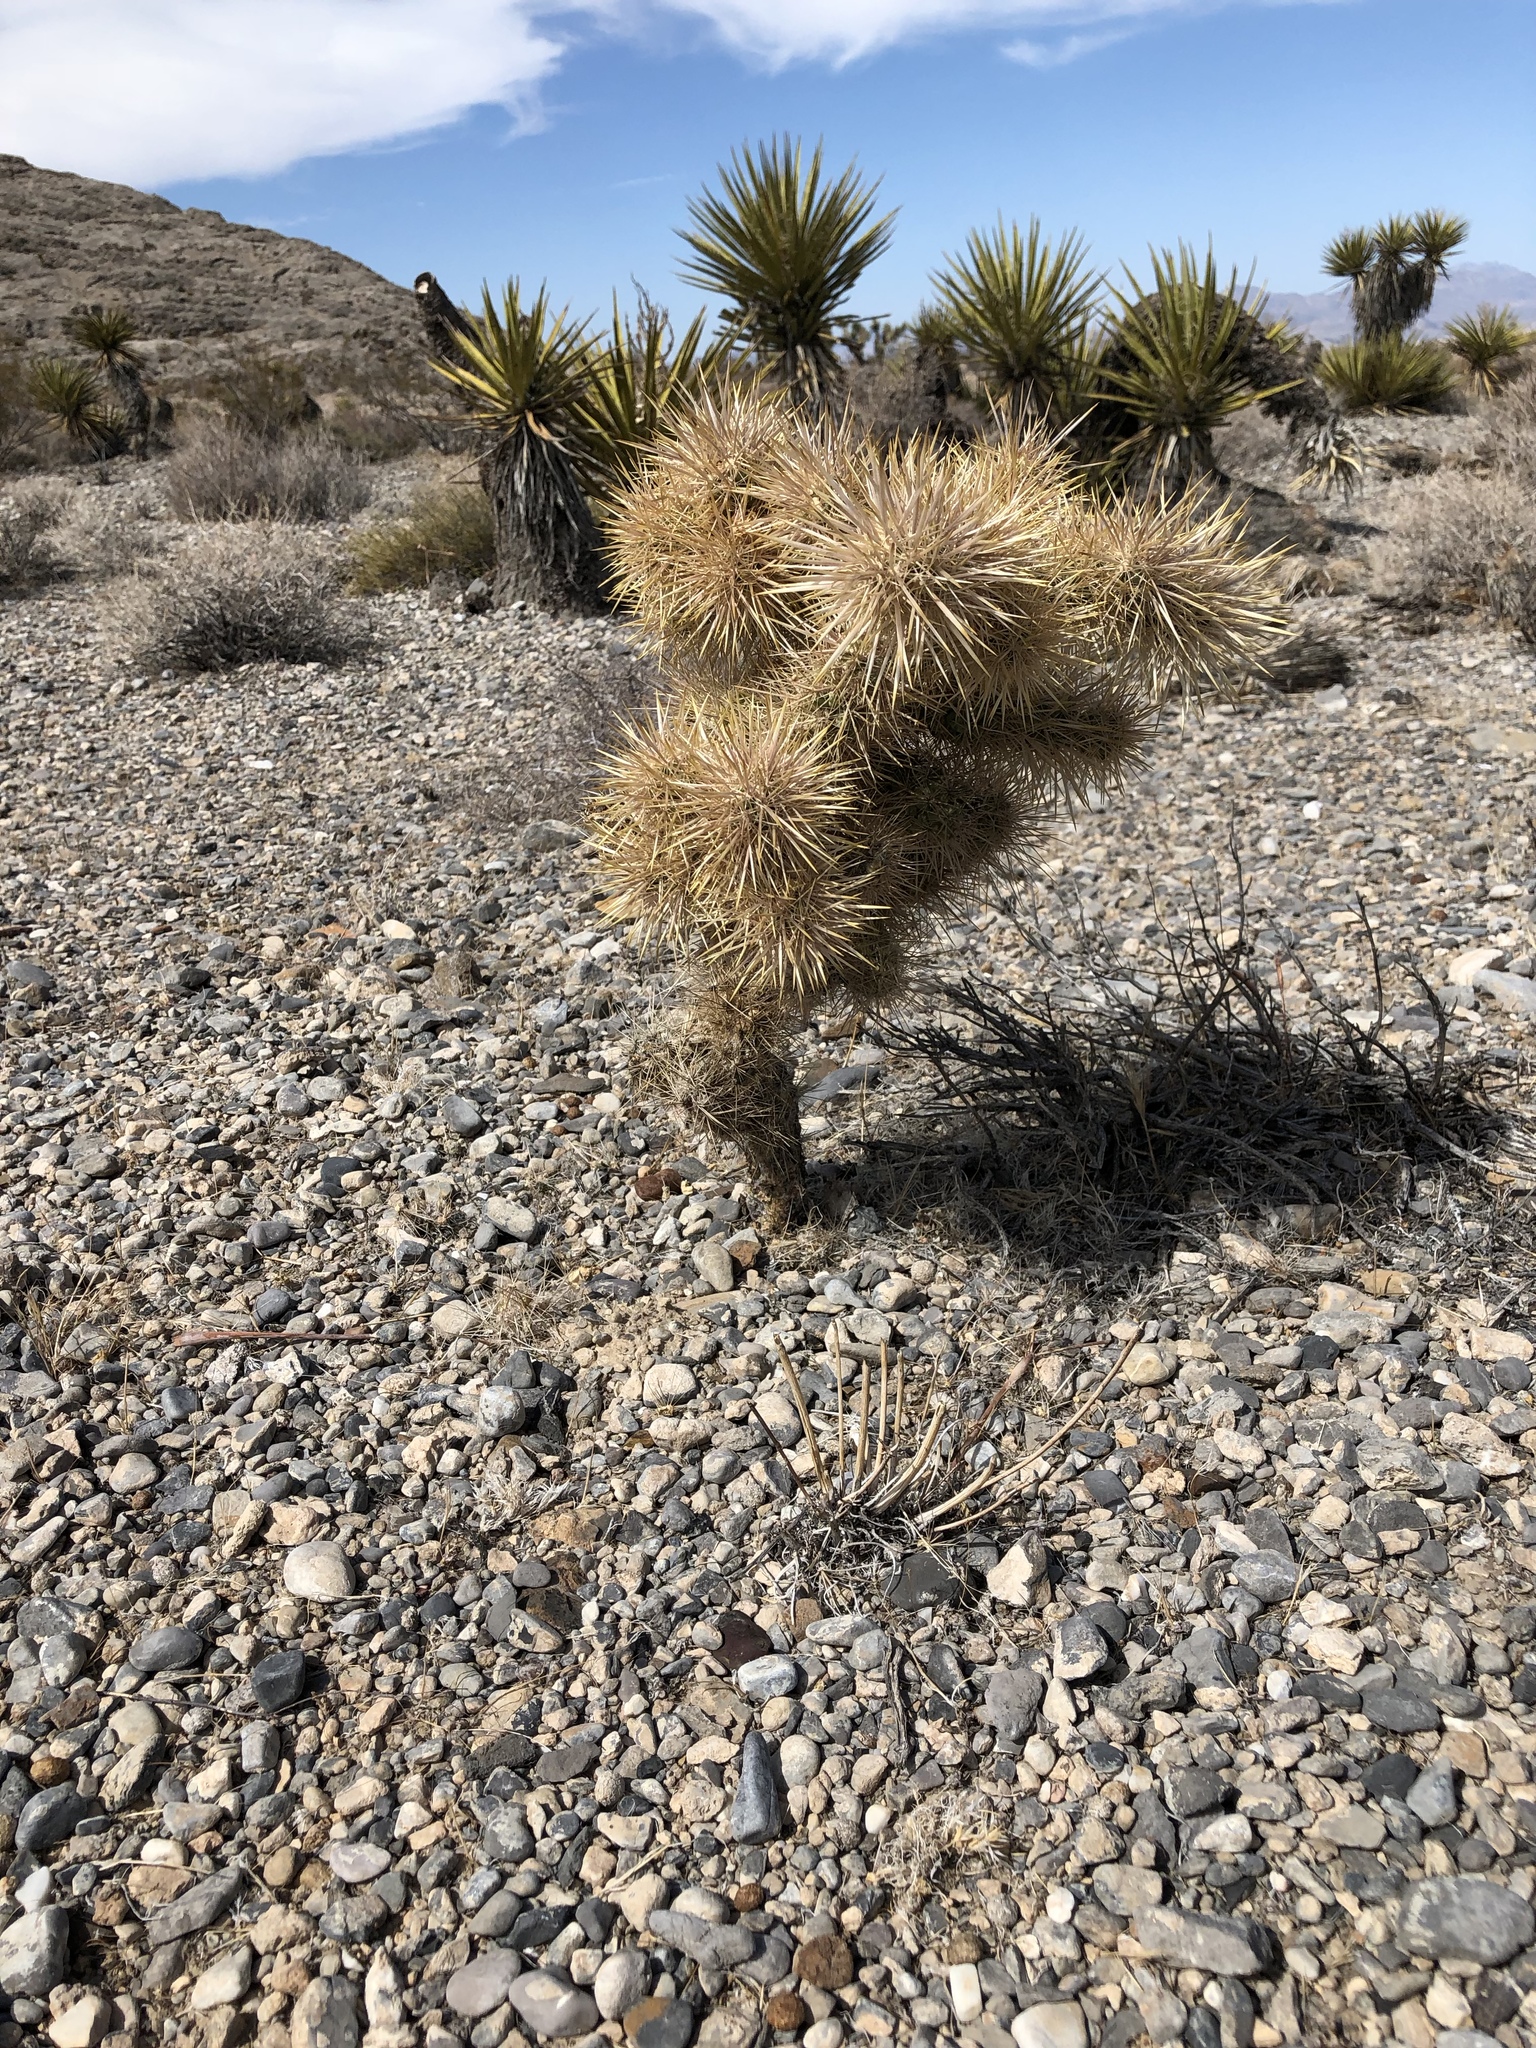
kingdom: Plantae
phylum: Tracheophyta
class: Magnoliopsida
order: Caryophyllales
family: Cactaceae
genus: Cylindropuntia
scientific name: Cylindropuntia echinocarpa
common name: Ground cholla
